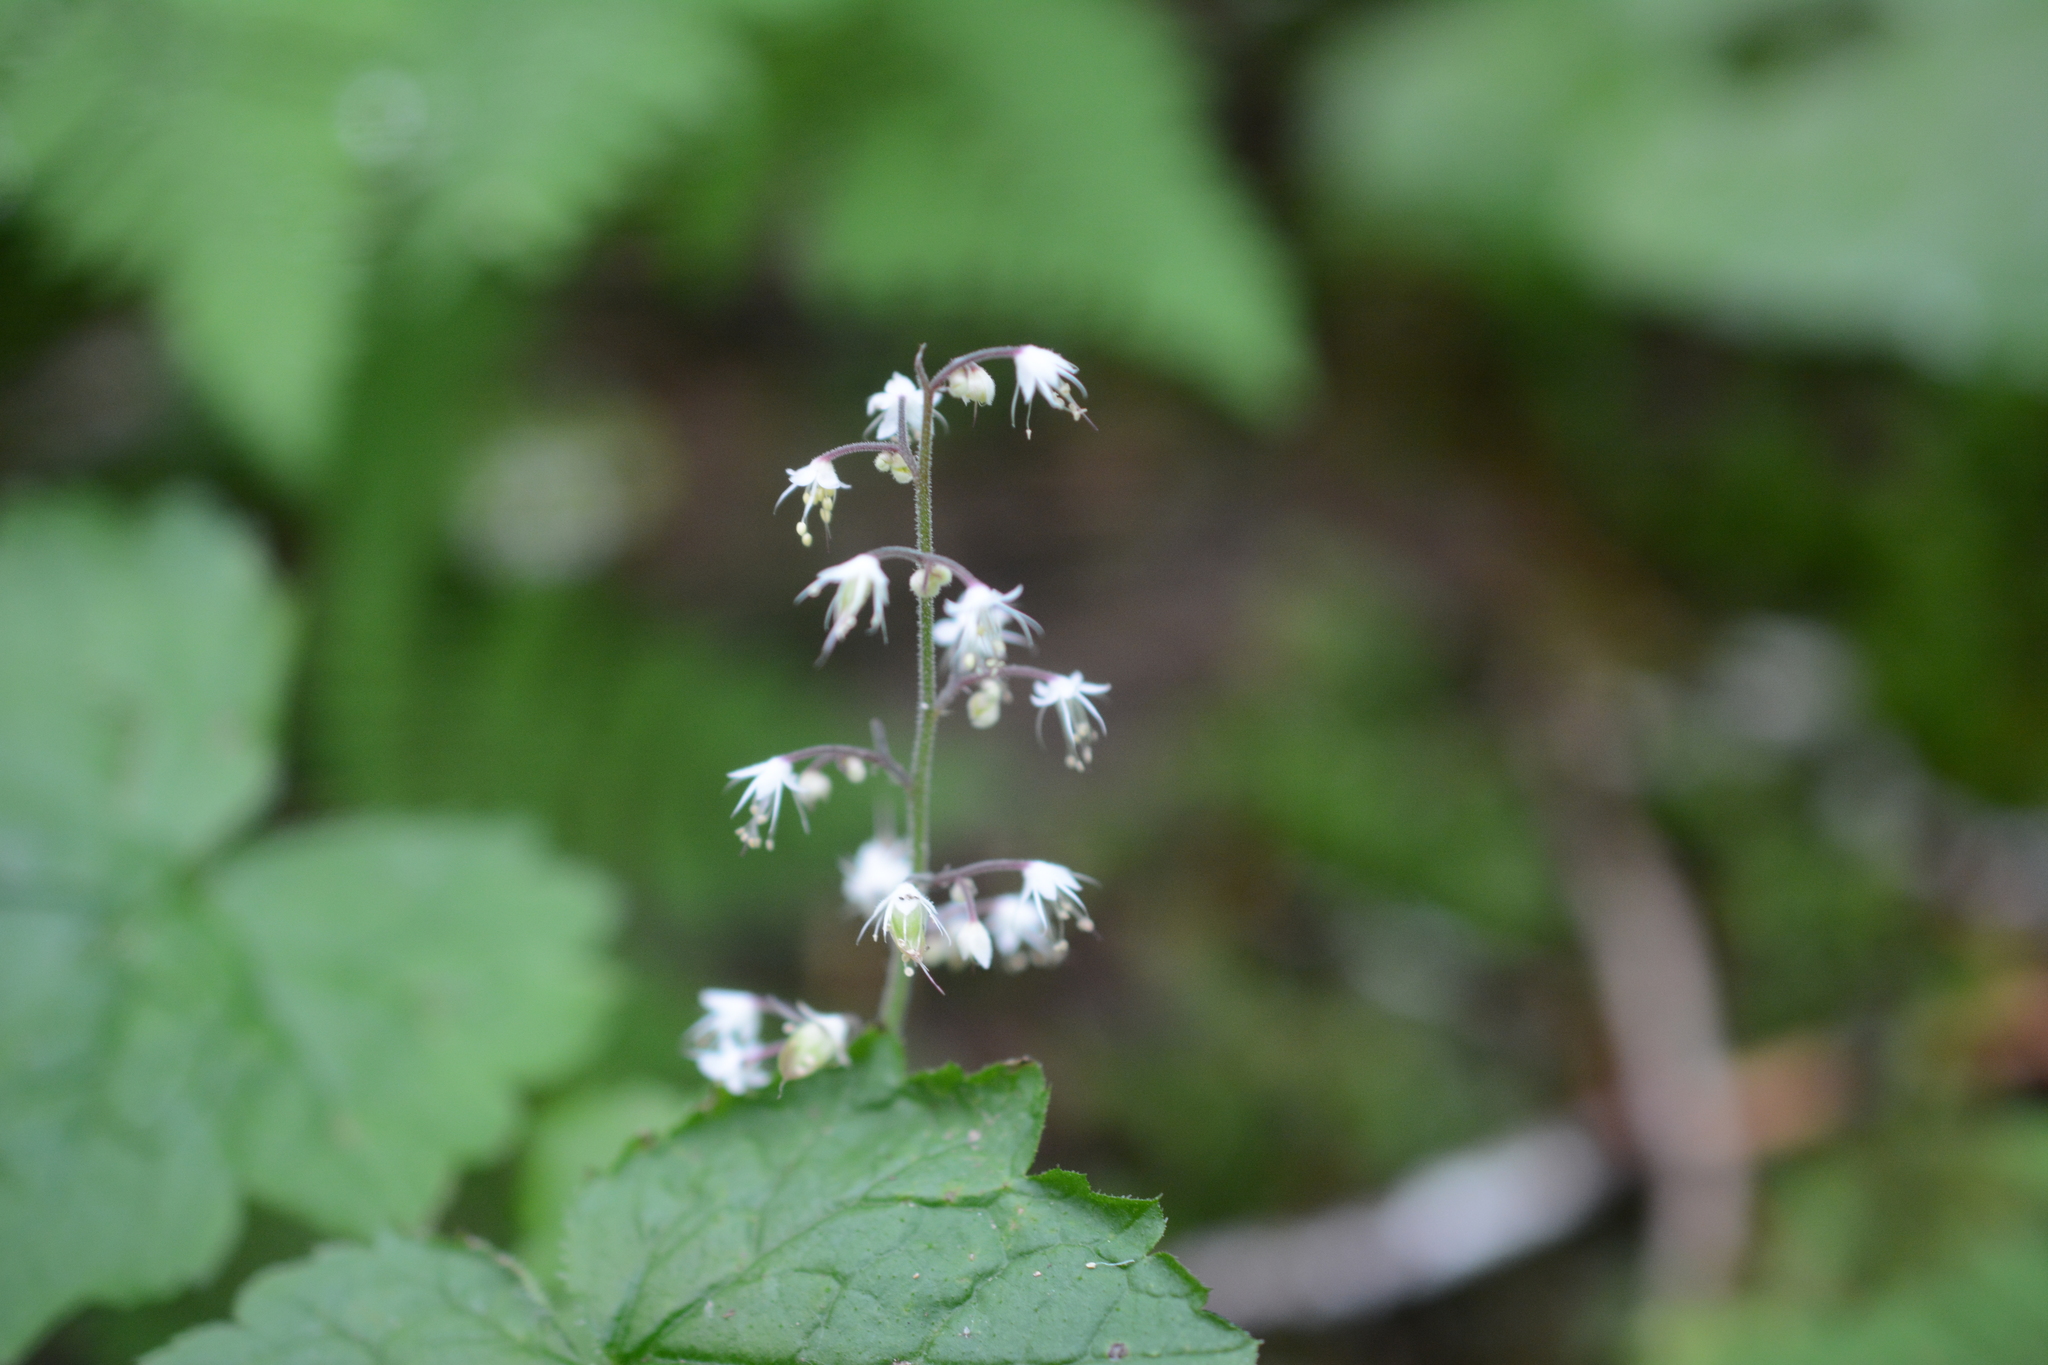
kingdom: Plantae
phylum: Tracheophyta
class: Magnoliopsida
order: Saxifragales
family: Saxifragaceae
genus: Tiarella
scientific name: Tiarella trifoliata
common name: Sugar-scoop
